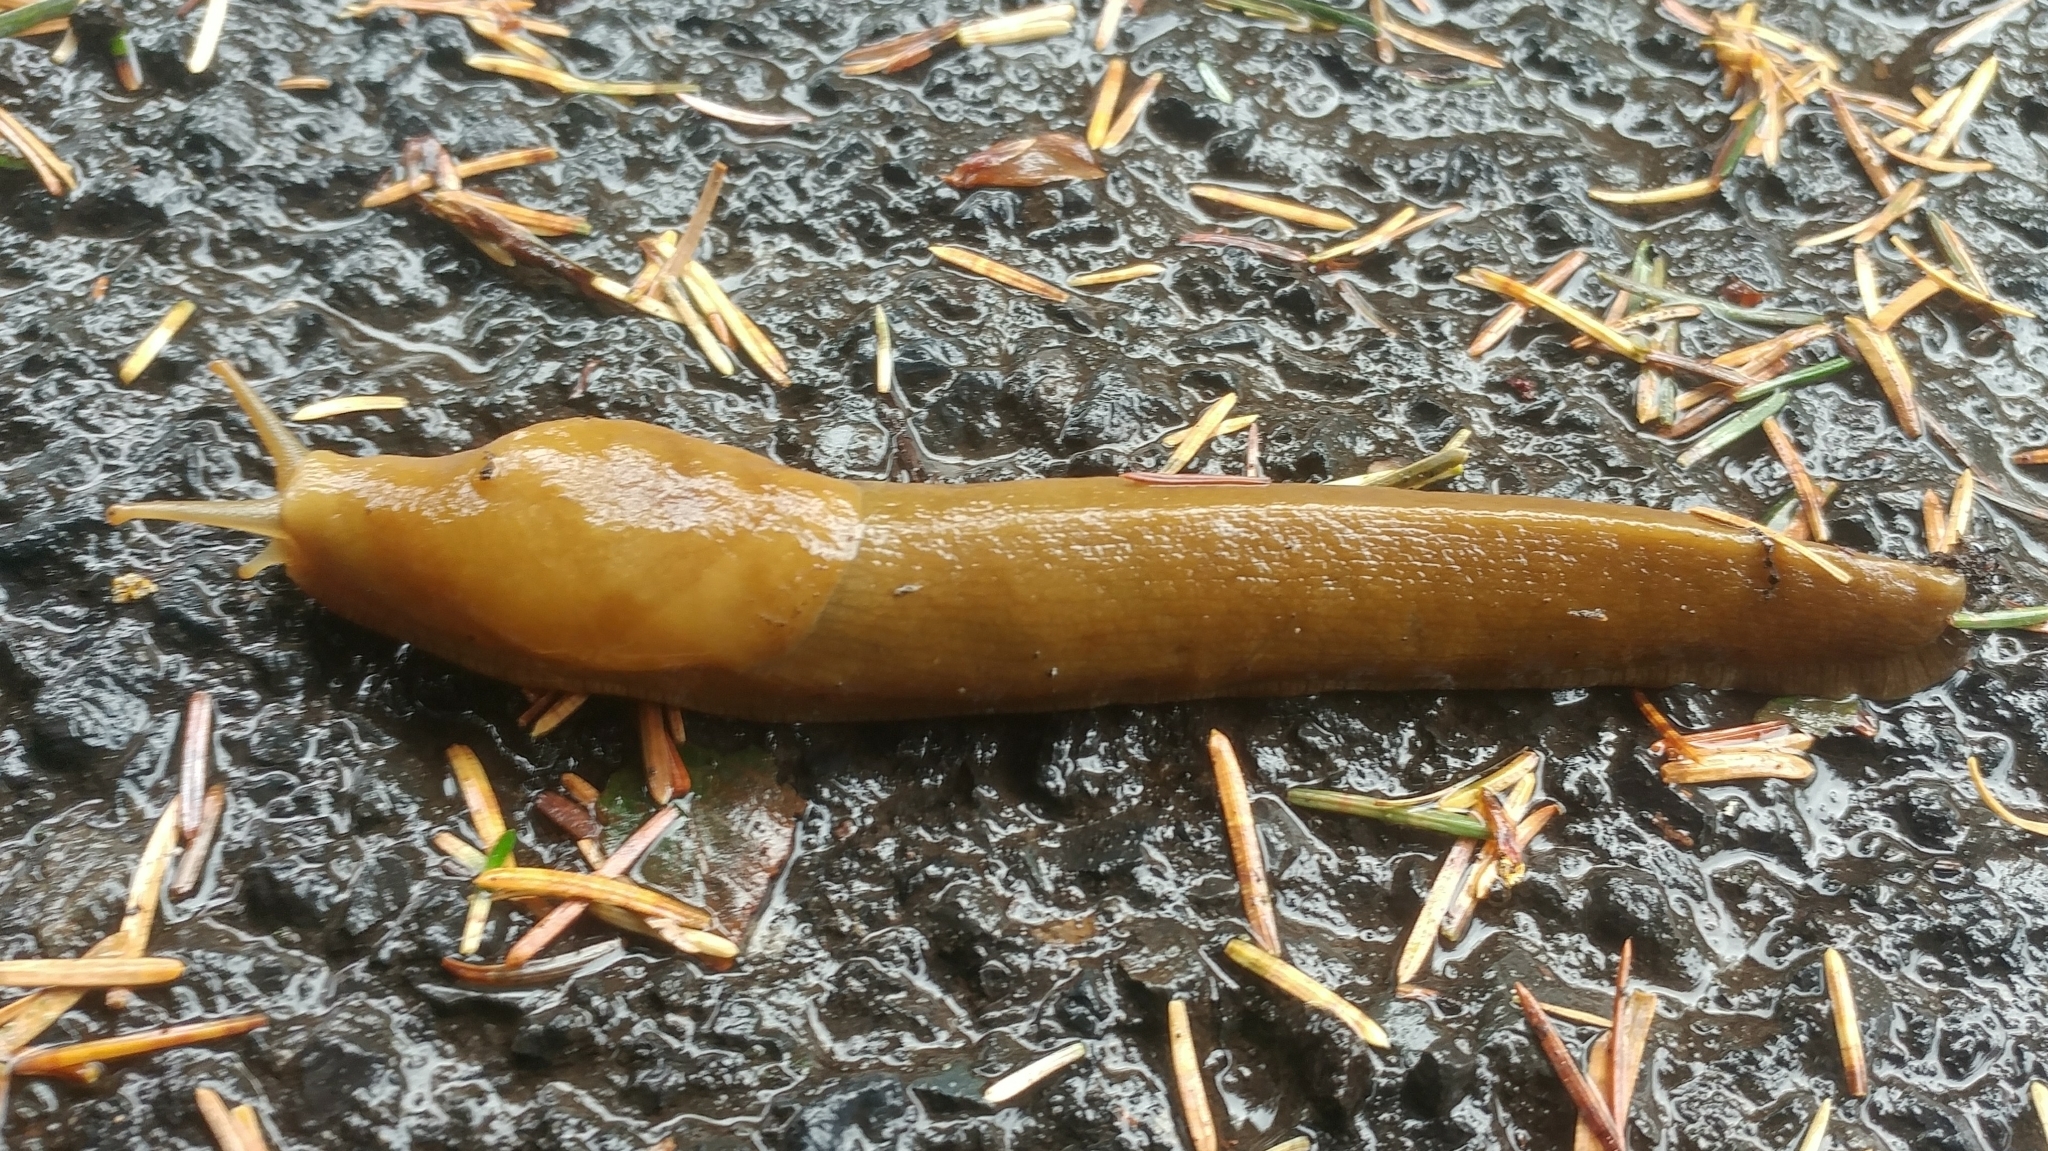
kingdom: Animalia
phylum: Mollusca
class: Gastropoda
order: Stylommatophora
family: Ariolimacidae
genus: Ariolimax
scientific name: Ariolimax columbianus
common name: Pacific banana slug
